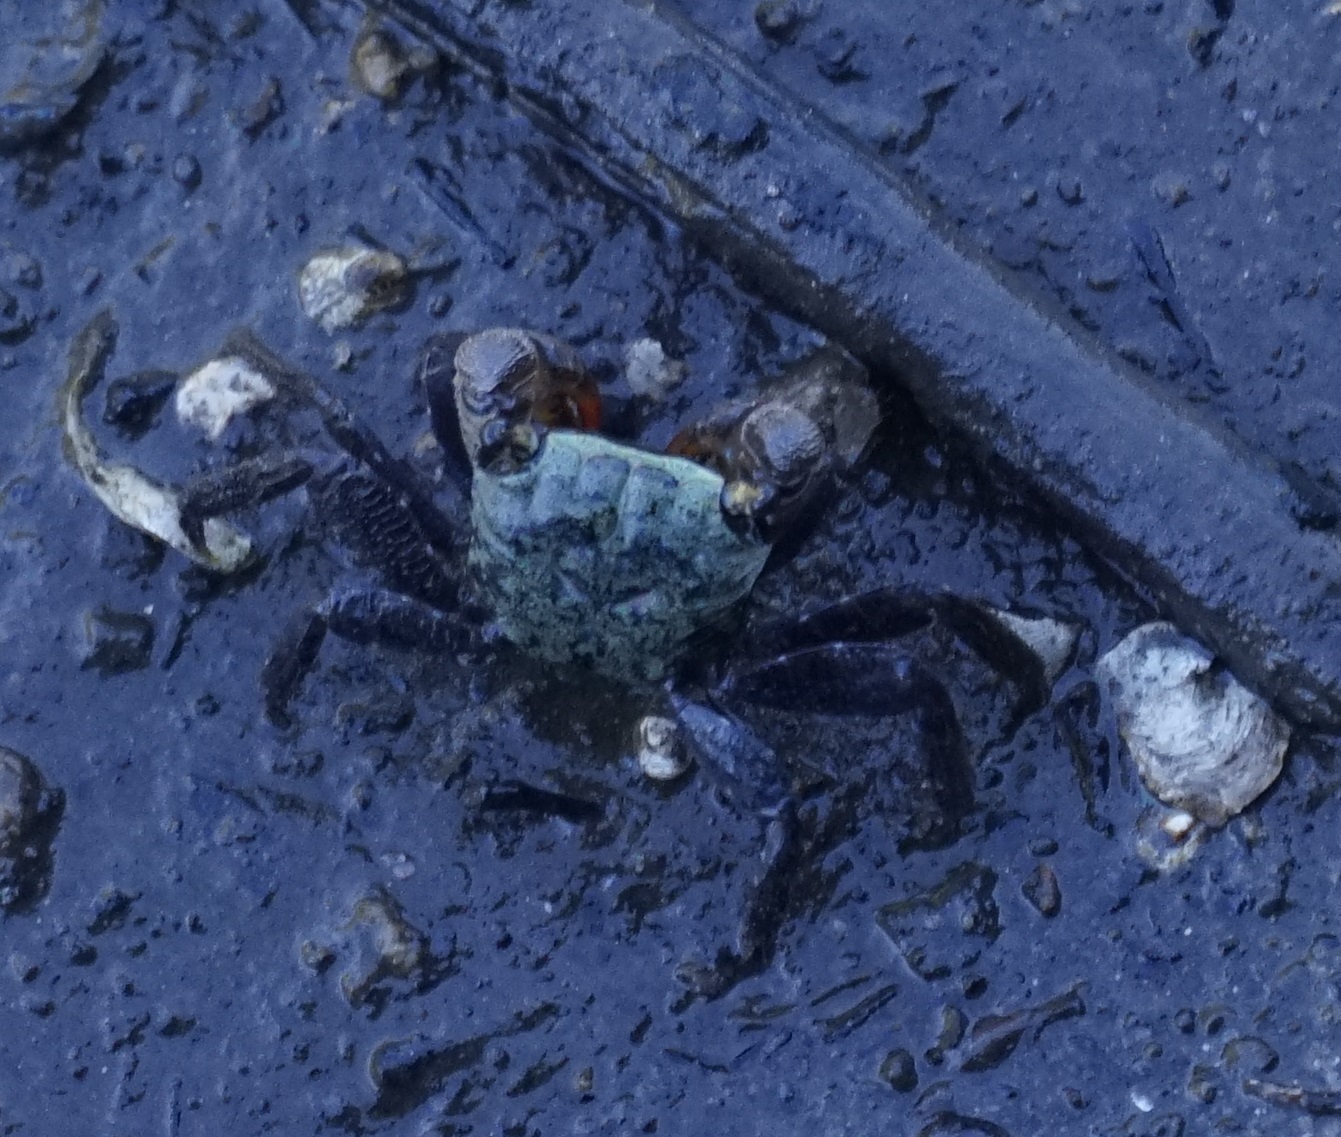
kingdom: Animalia
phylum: Arthropoda
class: Malacostraca
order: Decapoda
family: Sesarmidae
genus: Parasesarma
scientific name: Parasesarma erythodactylum
